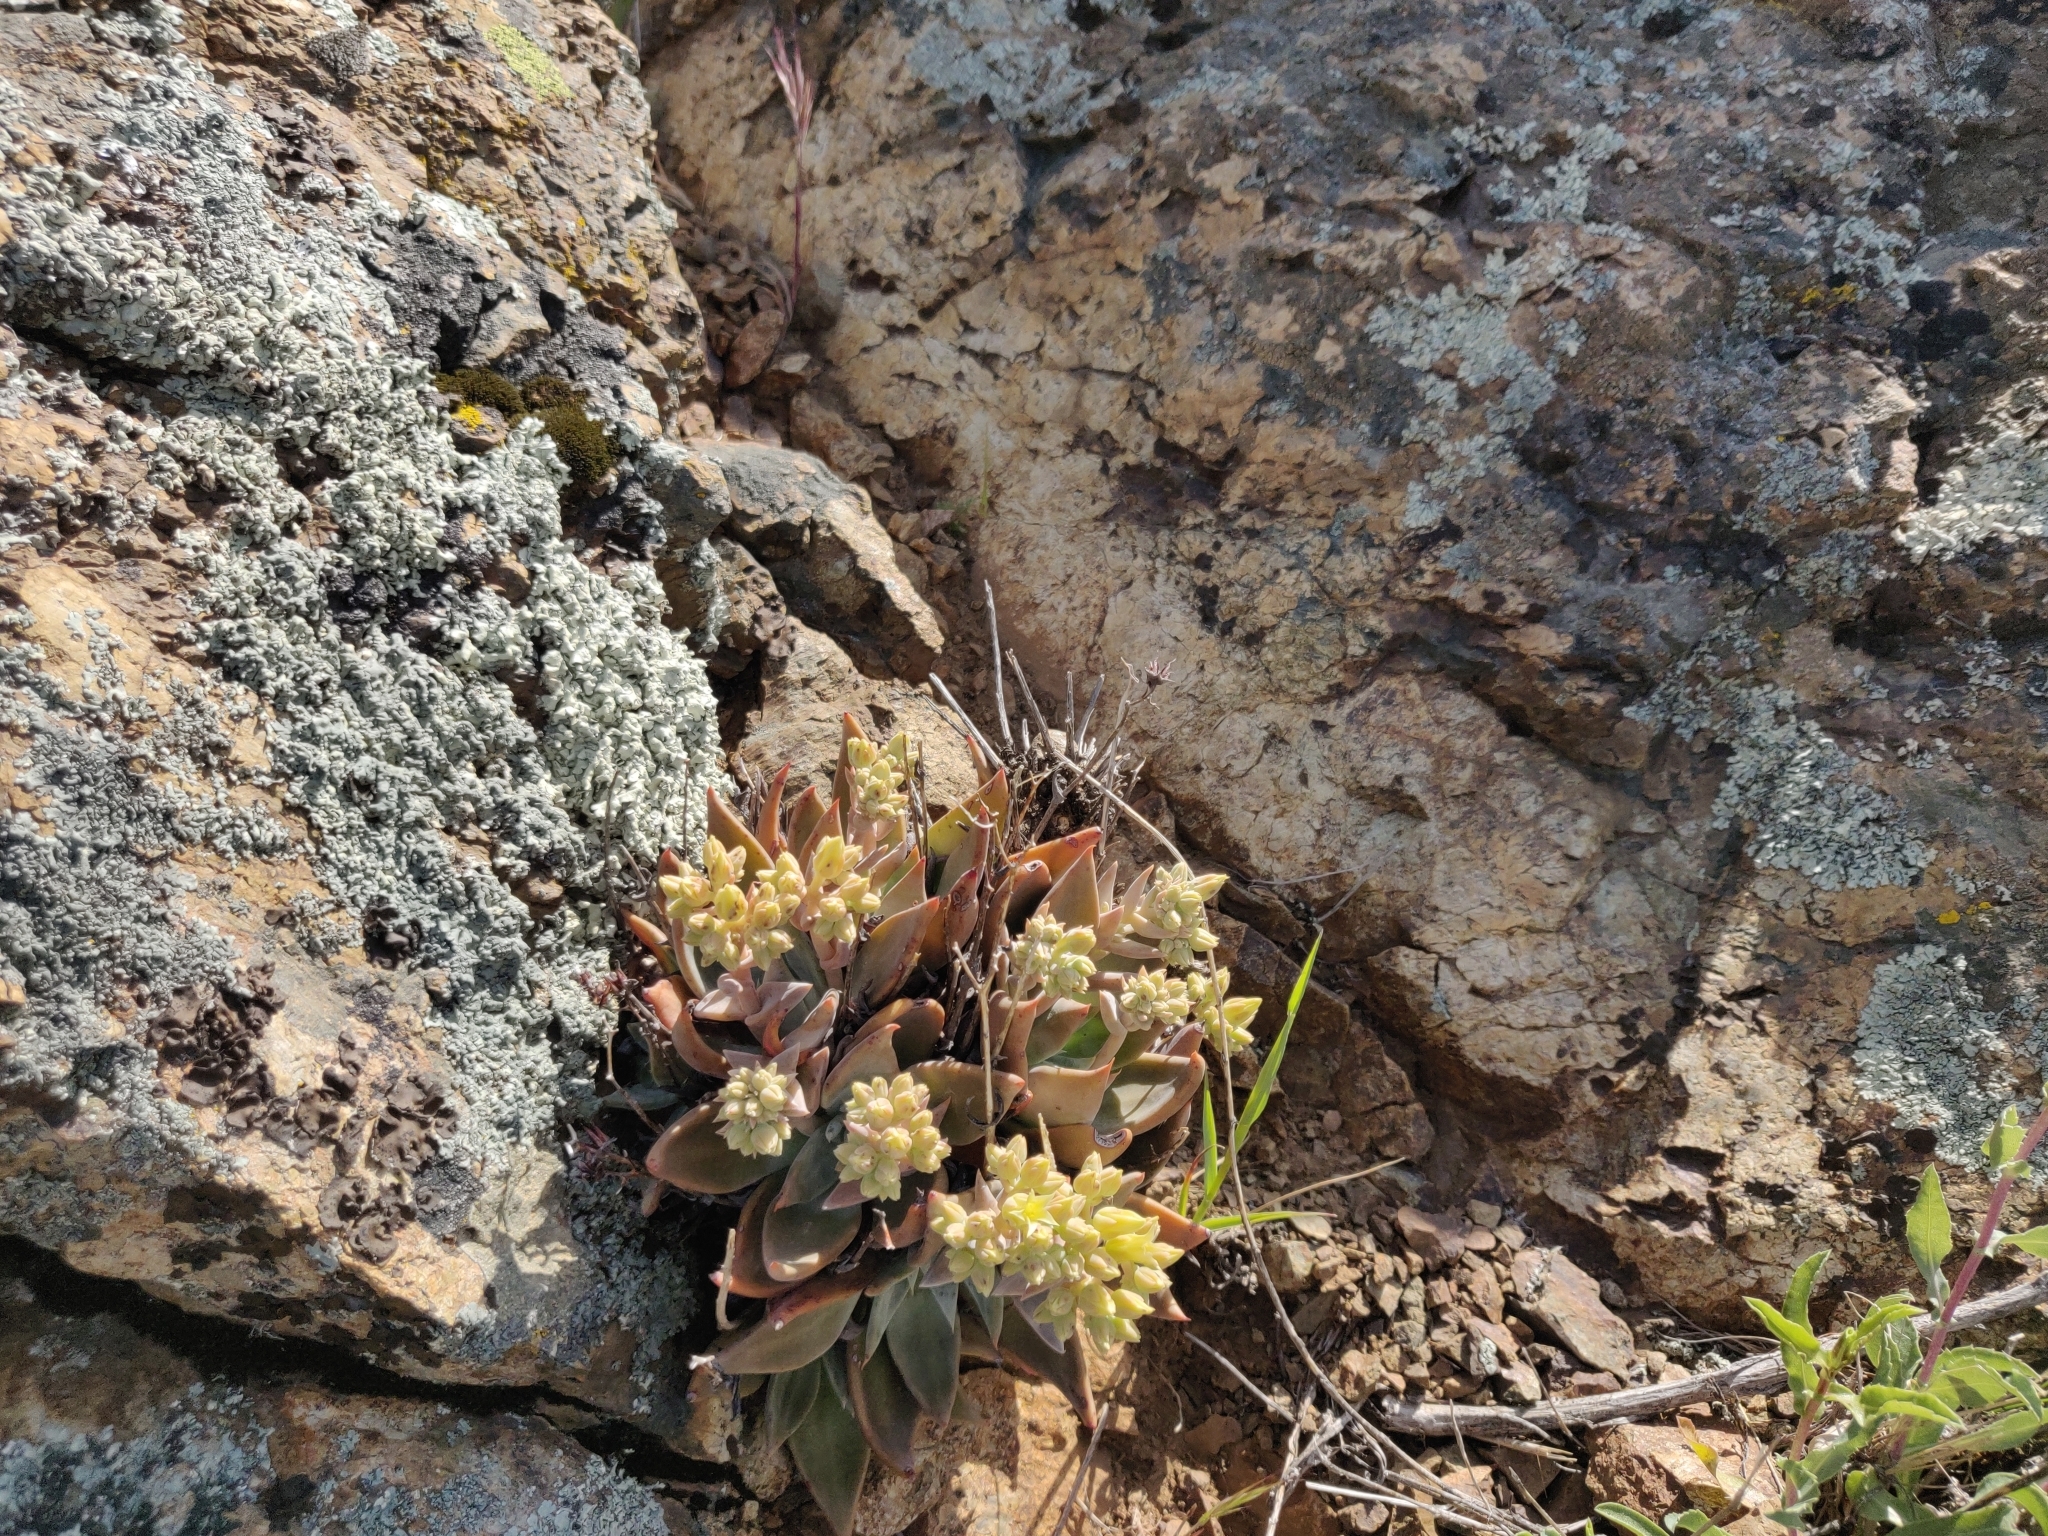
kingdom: Plantae
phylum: Tracheophyta
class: Magnoliopsida
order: Saxifragales
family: Crassulaceae
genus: Dudleya
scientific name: Dudleya cymosa
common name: Canyon dudleya
